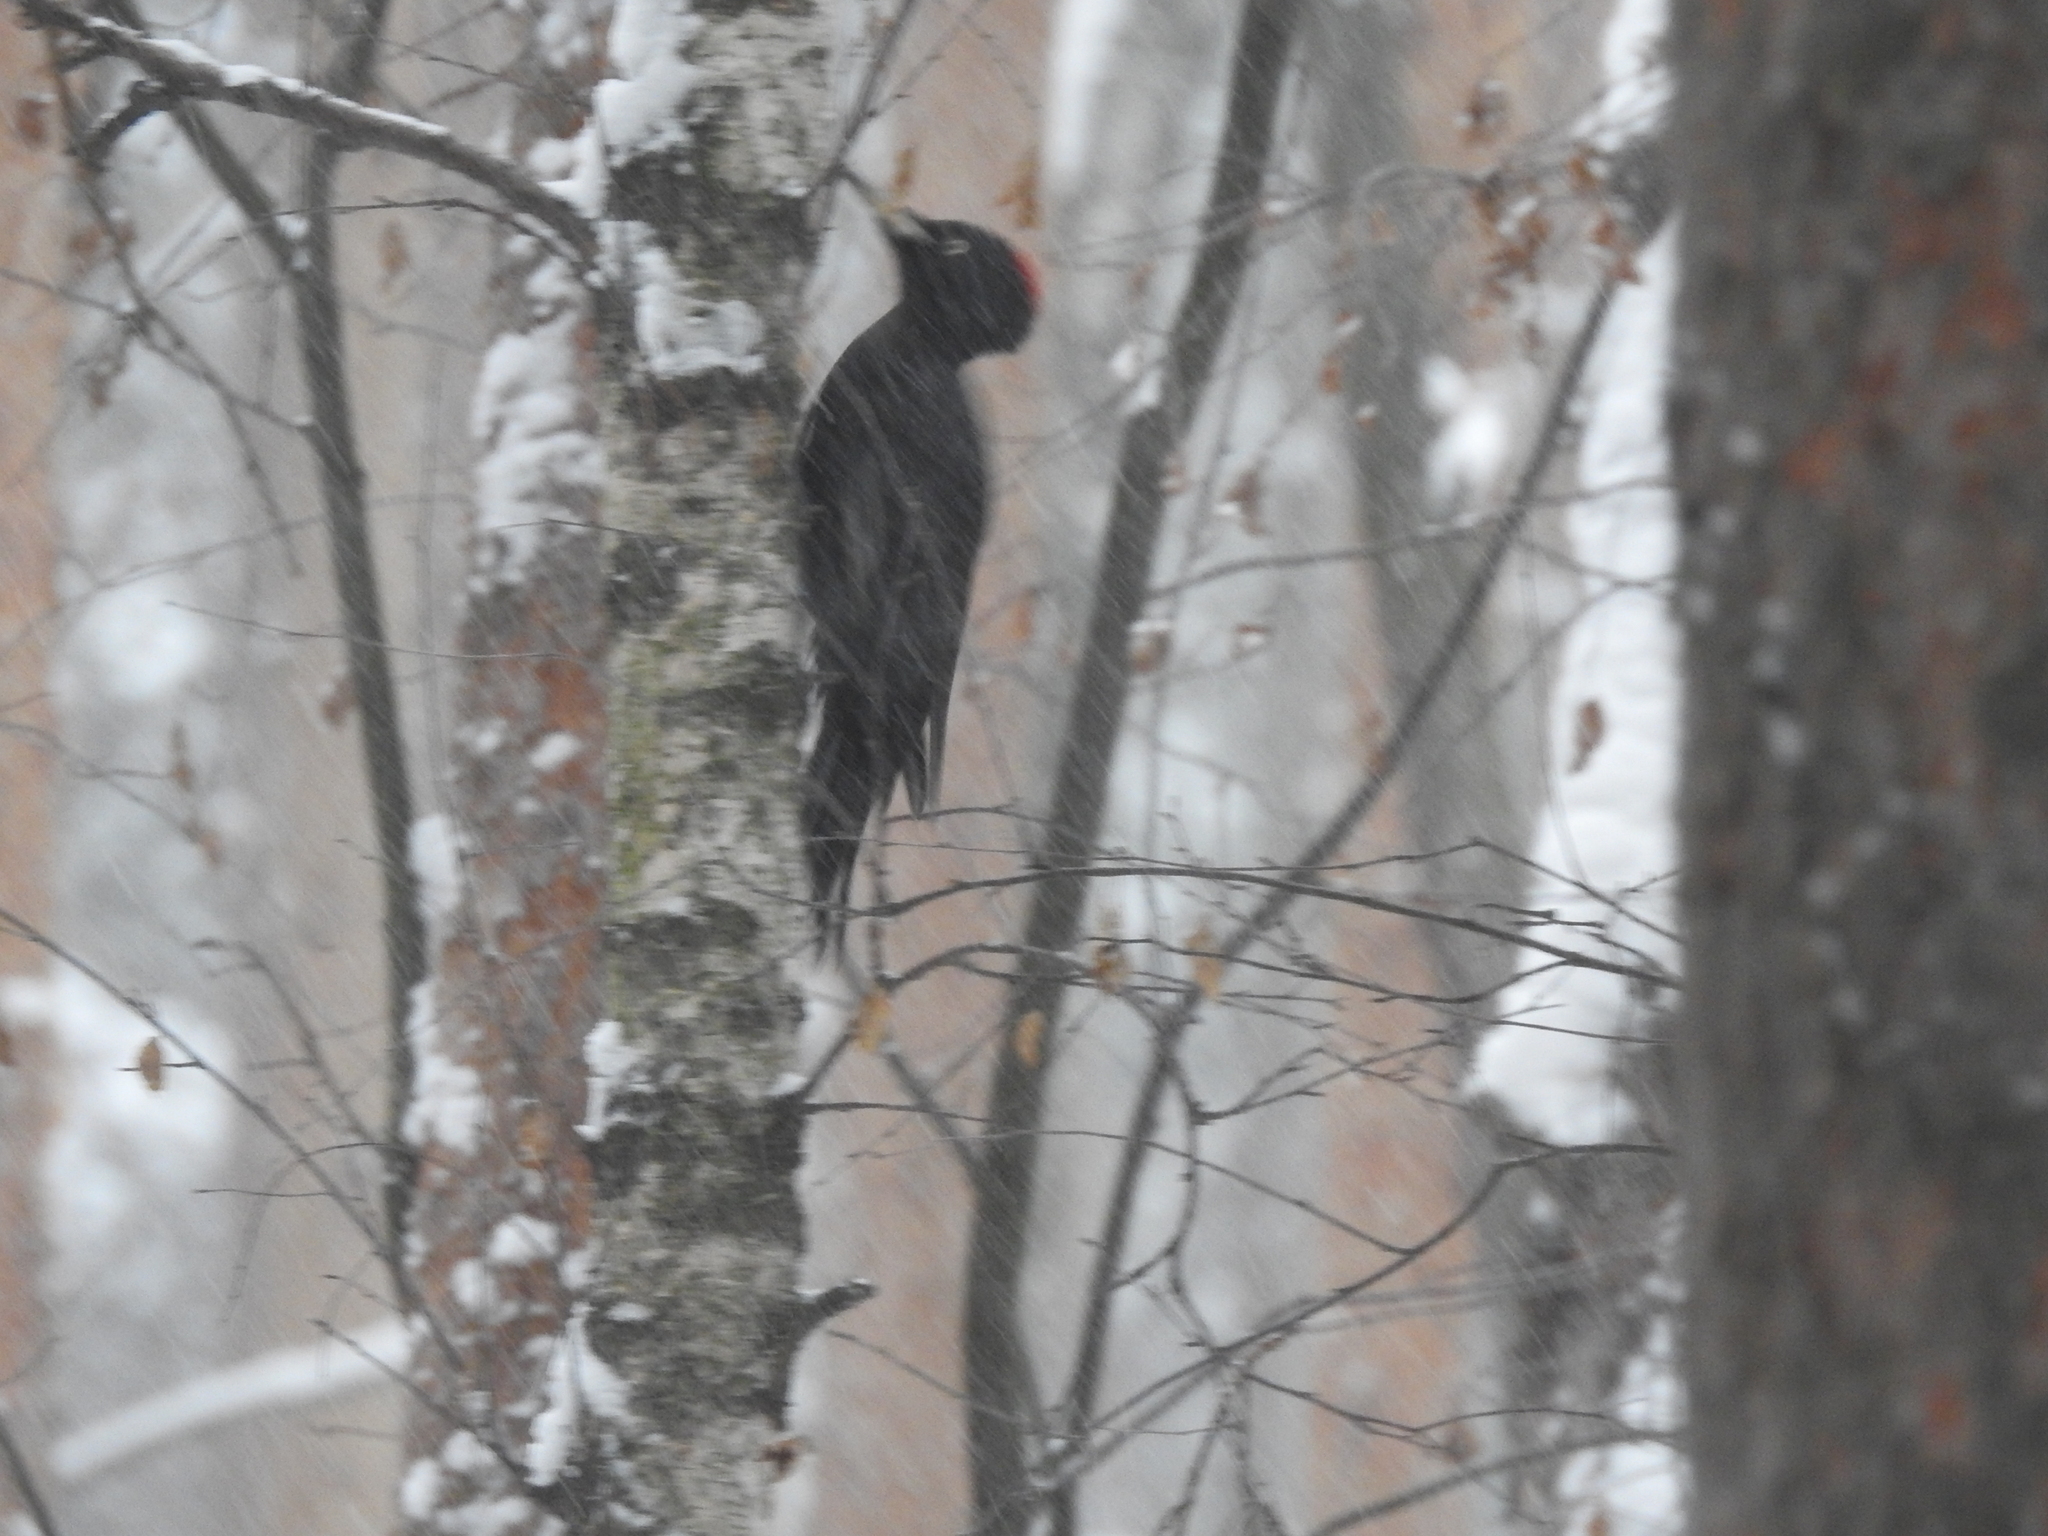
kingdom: Animalia
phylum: Chordata
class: Aves
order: Piciformes
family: Picidae
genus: Dryocopus
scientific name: Dryocopus martius
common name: Black woodpecker
